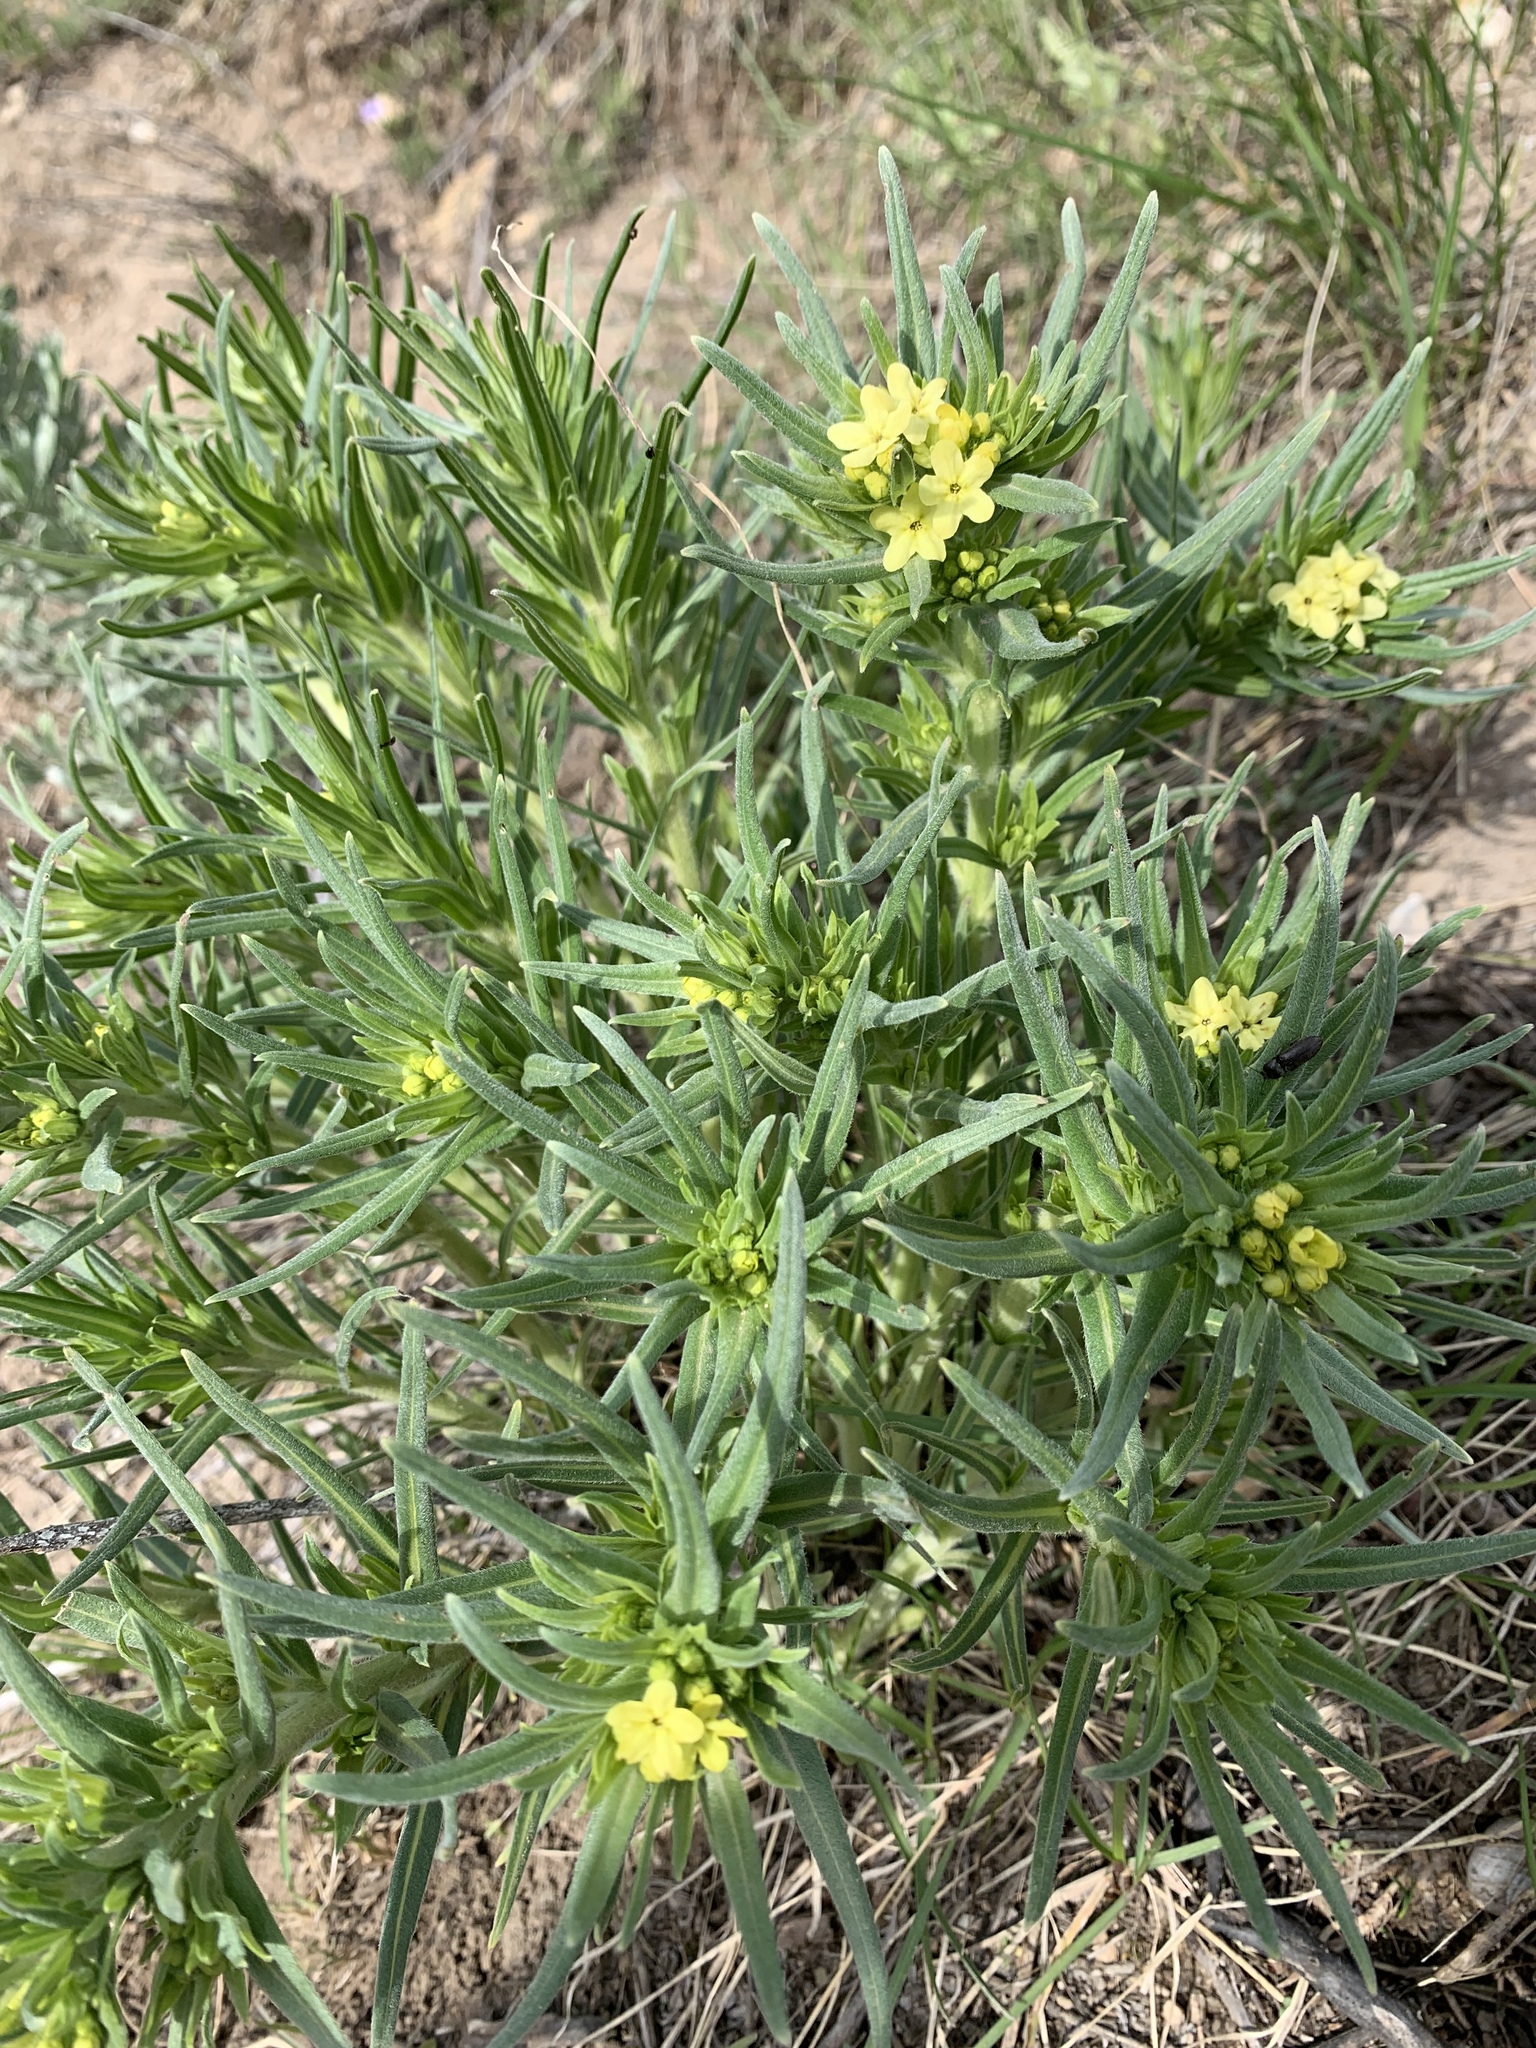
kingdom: Plantae
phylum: Tracheophyta
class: Magnoliopsida
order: Boraginales
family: Boraginaceae
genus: Lithospermum
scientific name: Lithospermum ruderale
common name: Western gromwell
